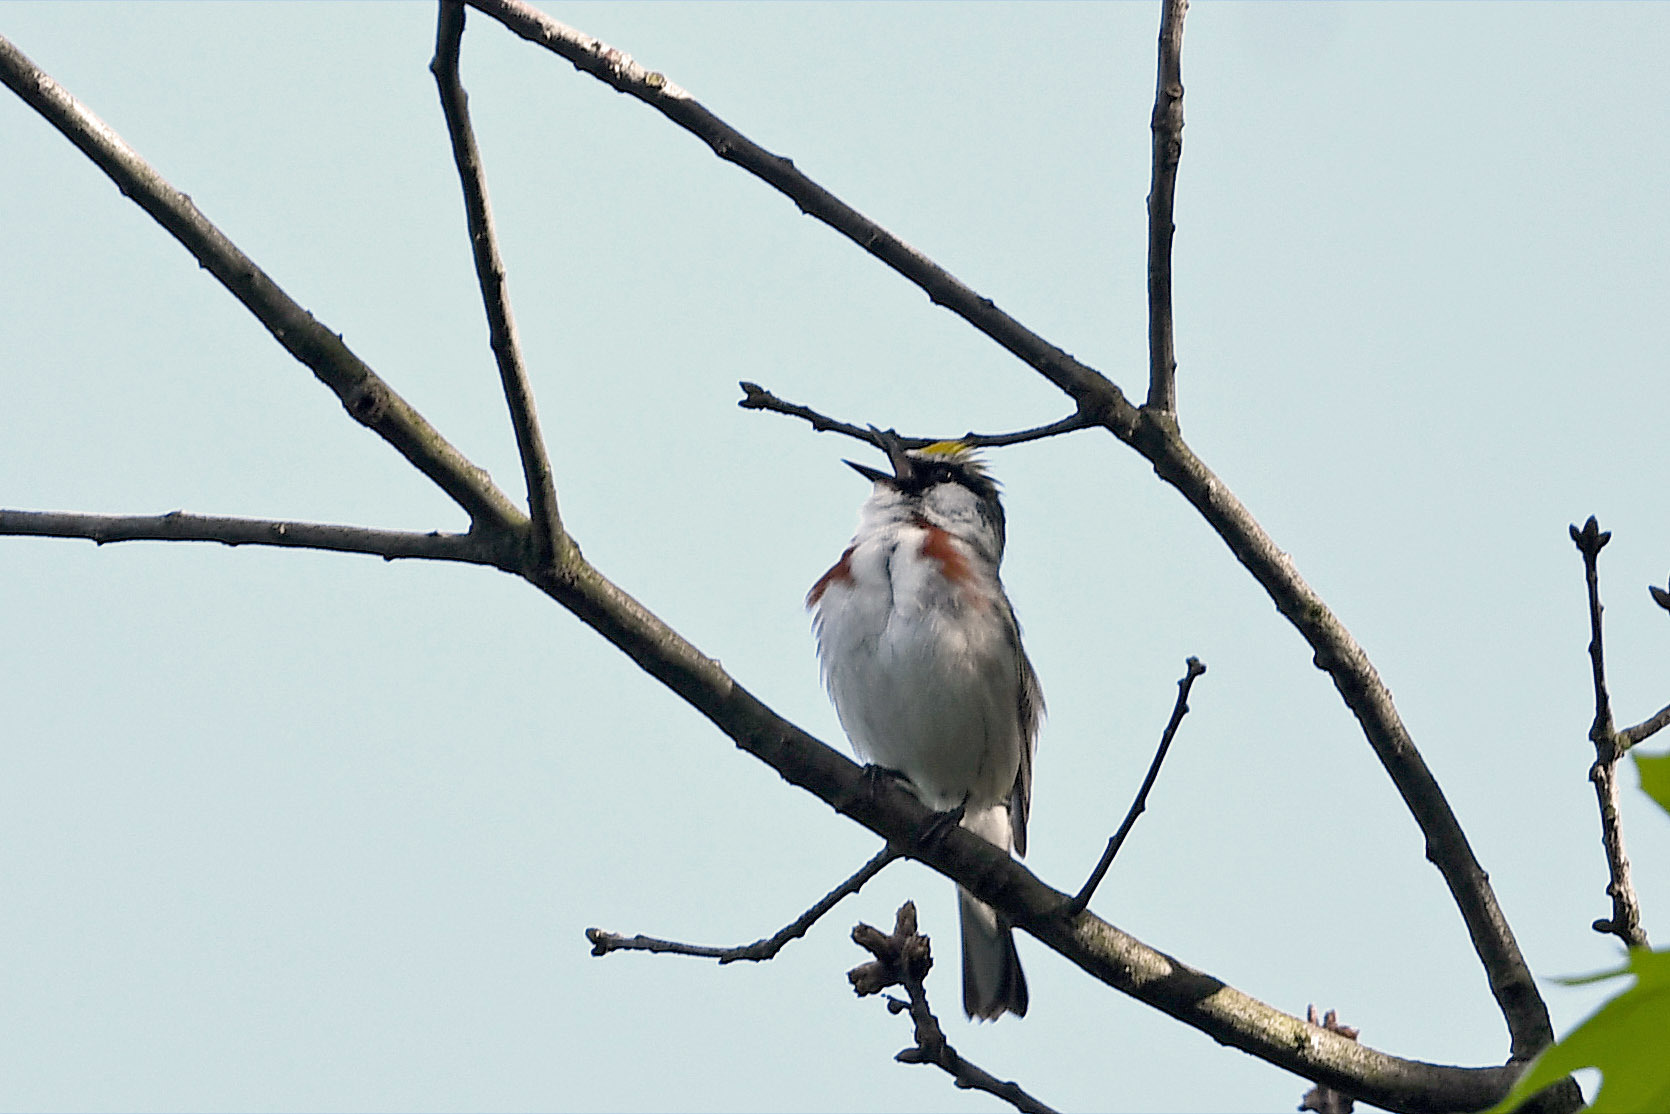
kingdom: Animalia
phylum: Chordata
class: Aves
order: Passeriformes
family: Parulidae
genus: Setophaga
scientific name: Setophaga pensylvanica
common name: Chestnut-sided warbler
